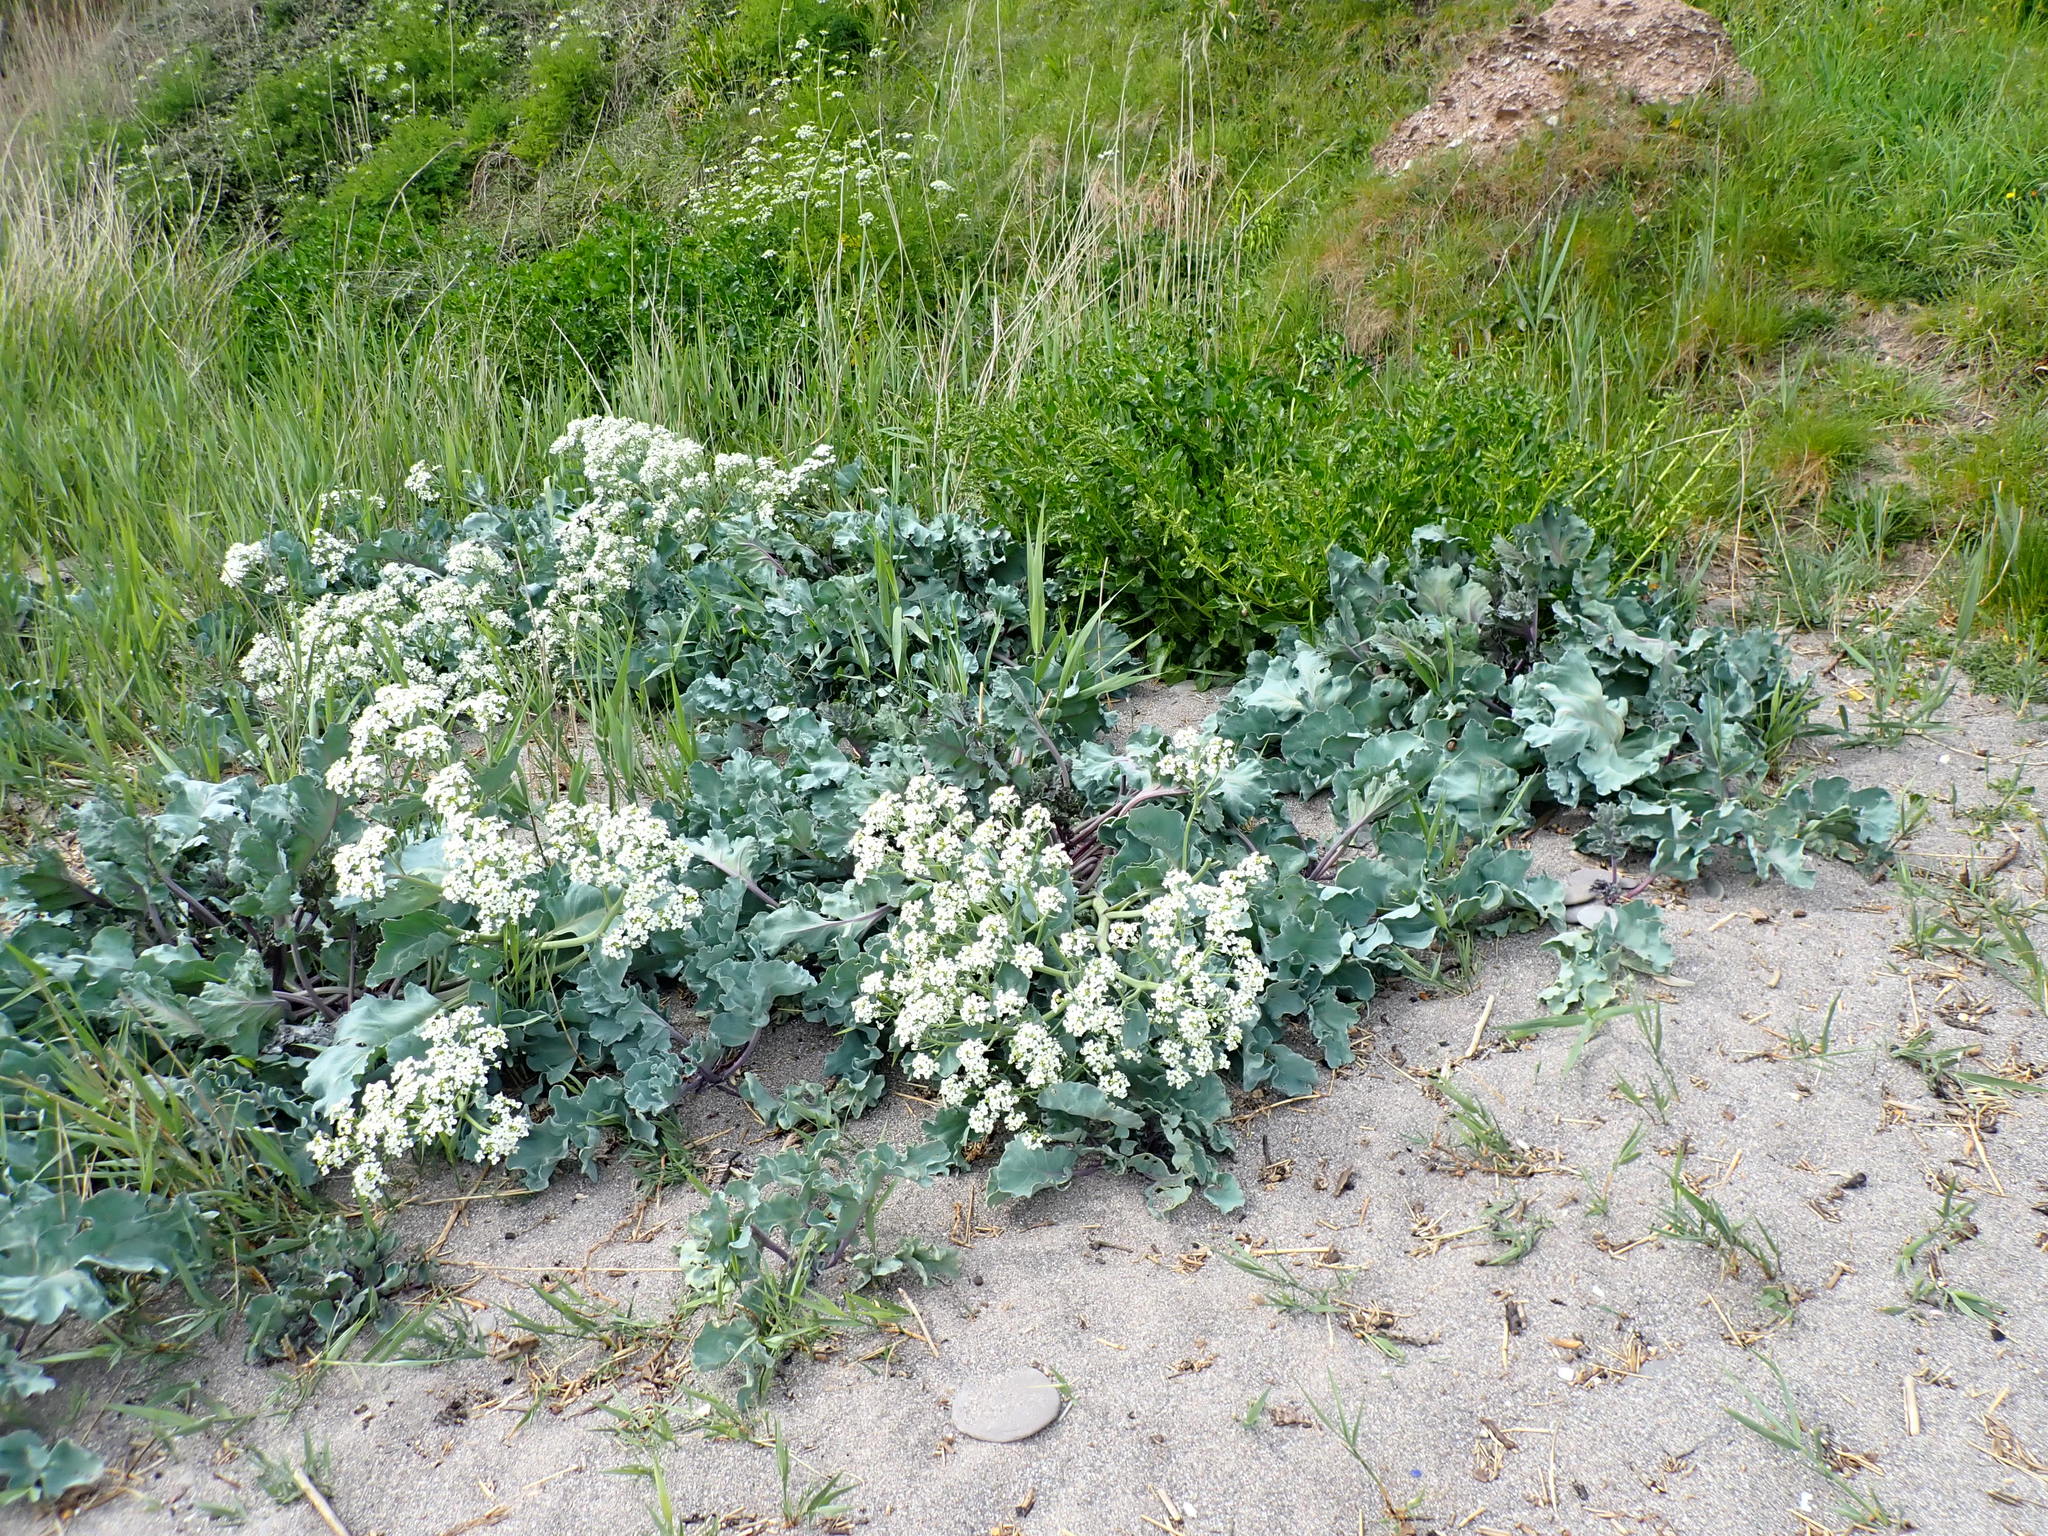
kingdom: Plantae
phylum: Tracheophyta
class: Magnoliopsida
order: Brassicales
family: Brassicaceae
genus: Crambe
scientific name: Crambe maritima
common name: Sea-kale
